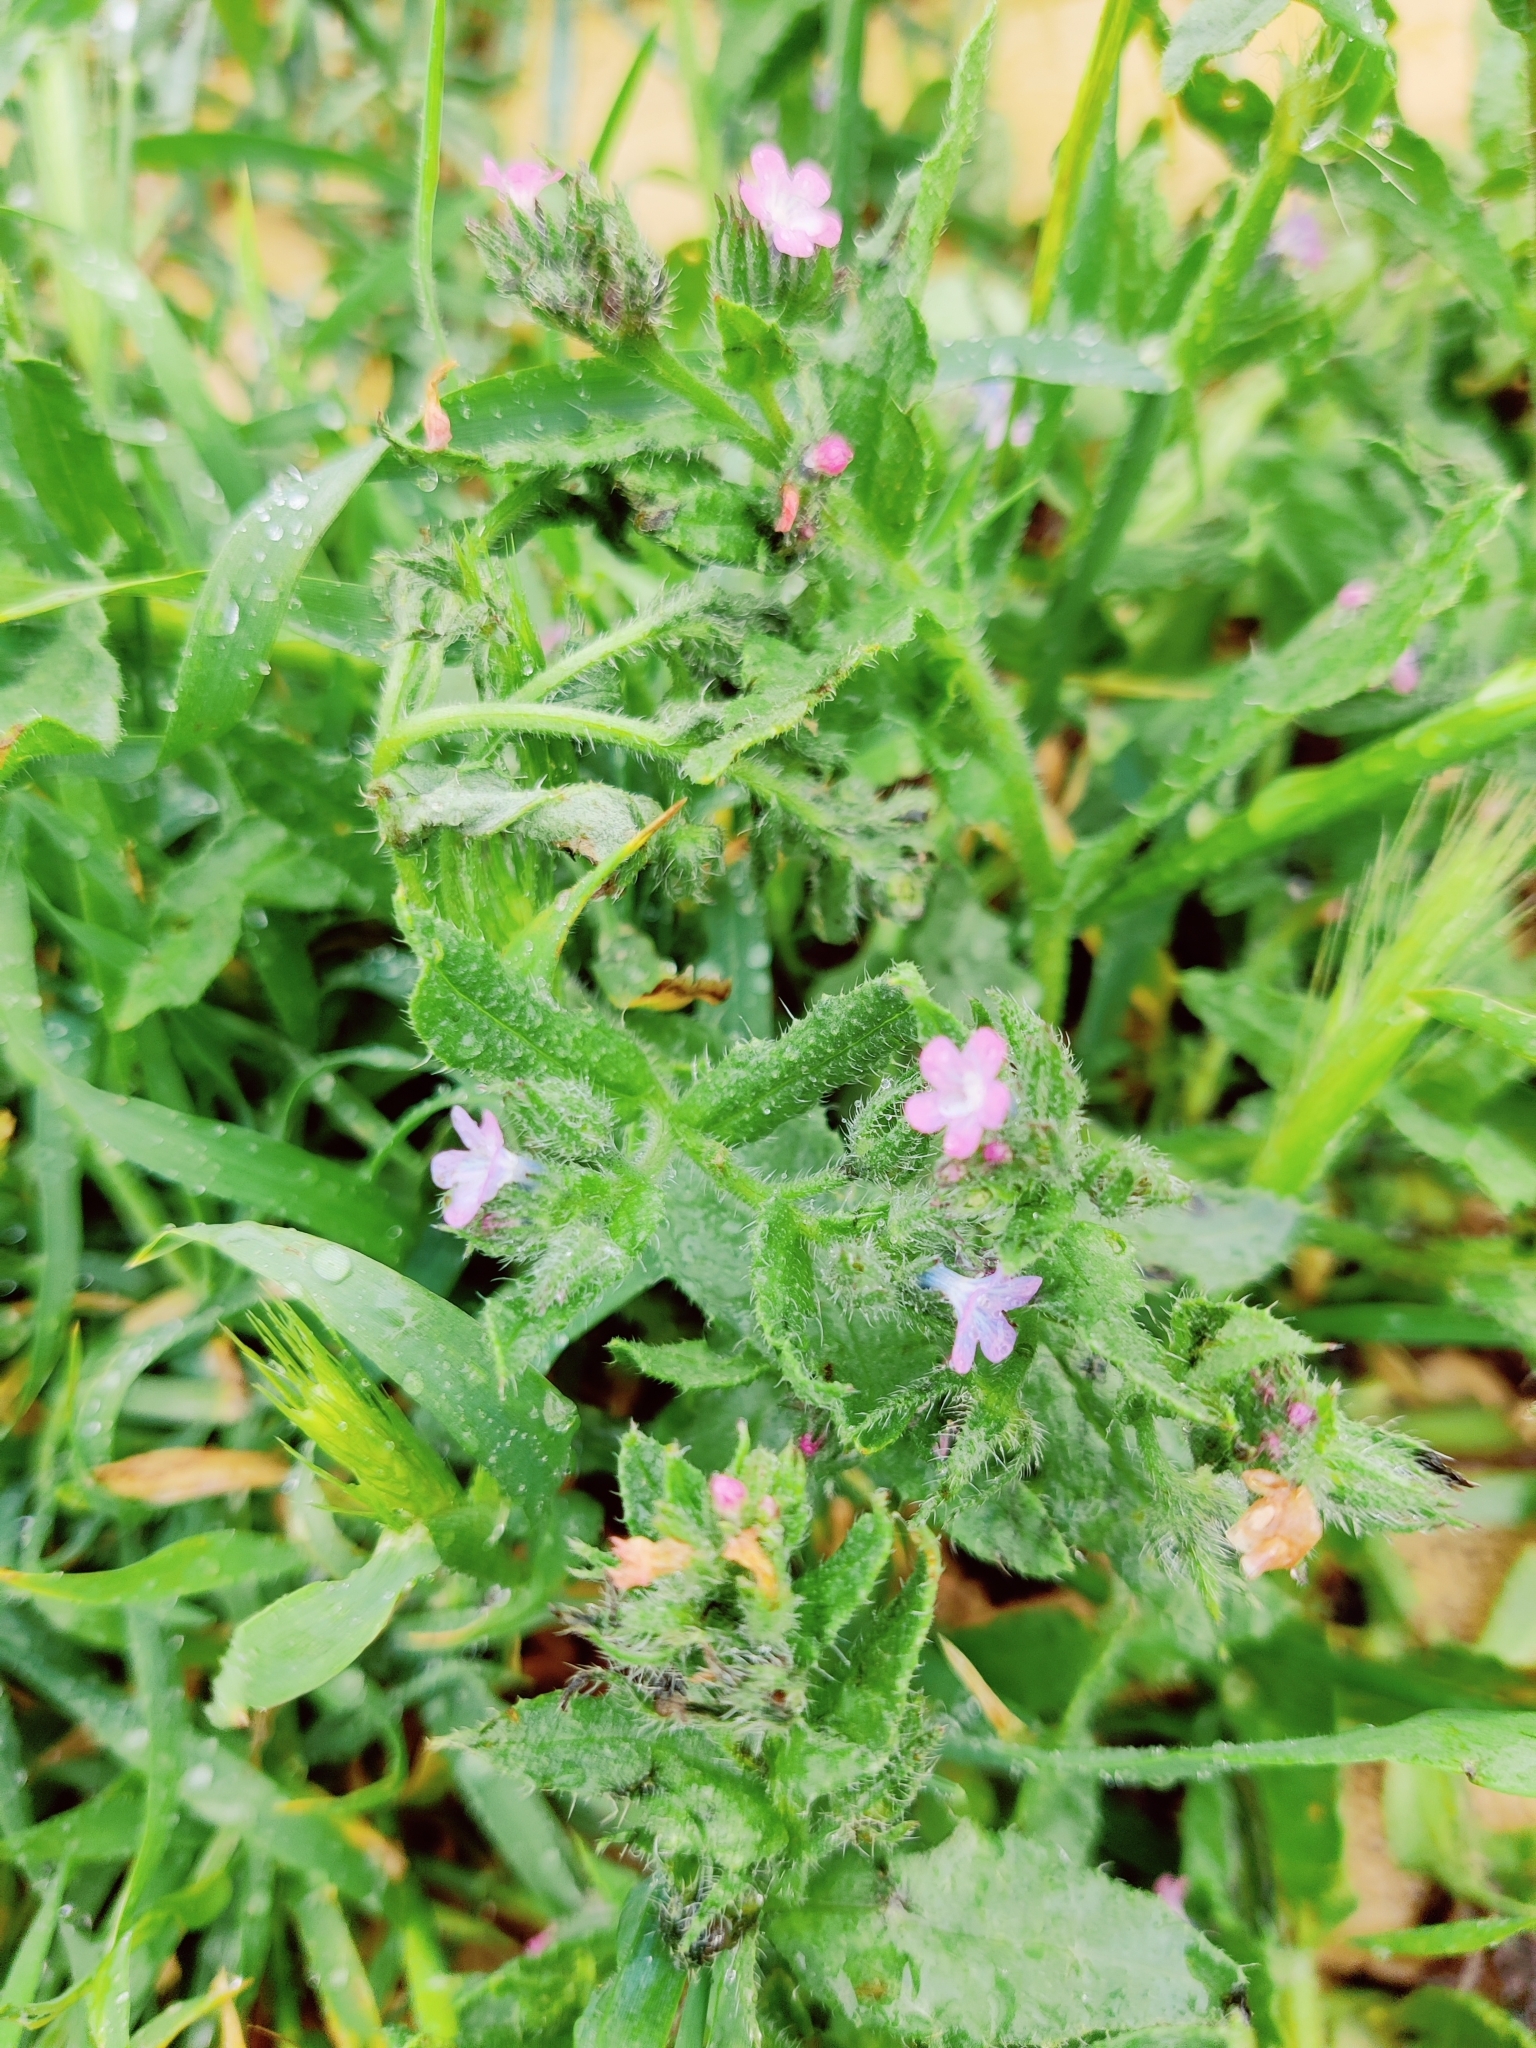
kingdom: Plantae
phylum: Tracheophyta
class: Magnoliopsida
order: Boraginales
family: Boraginaceae
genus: Lycopsis
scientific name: Lycopsis arvensis
